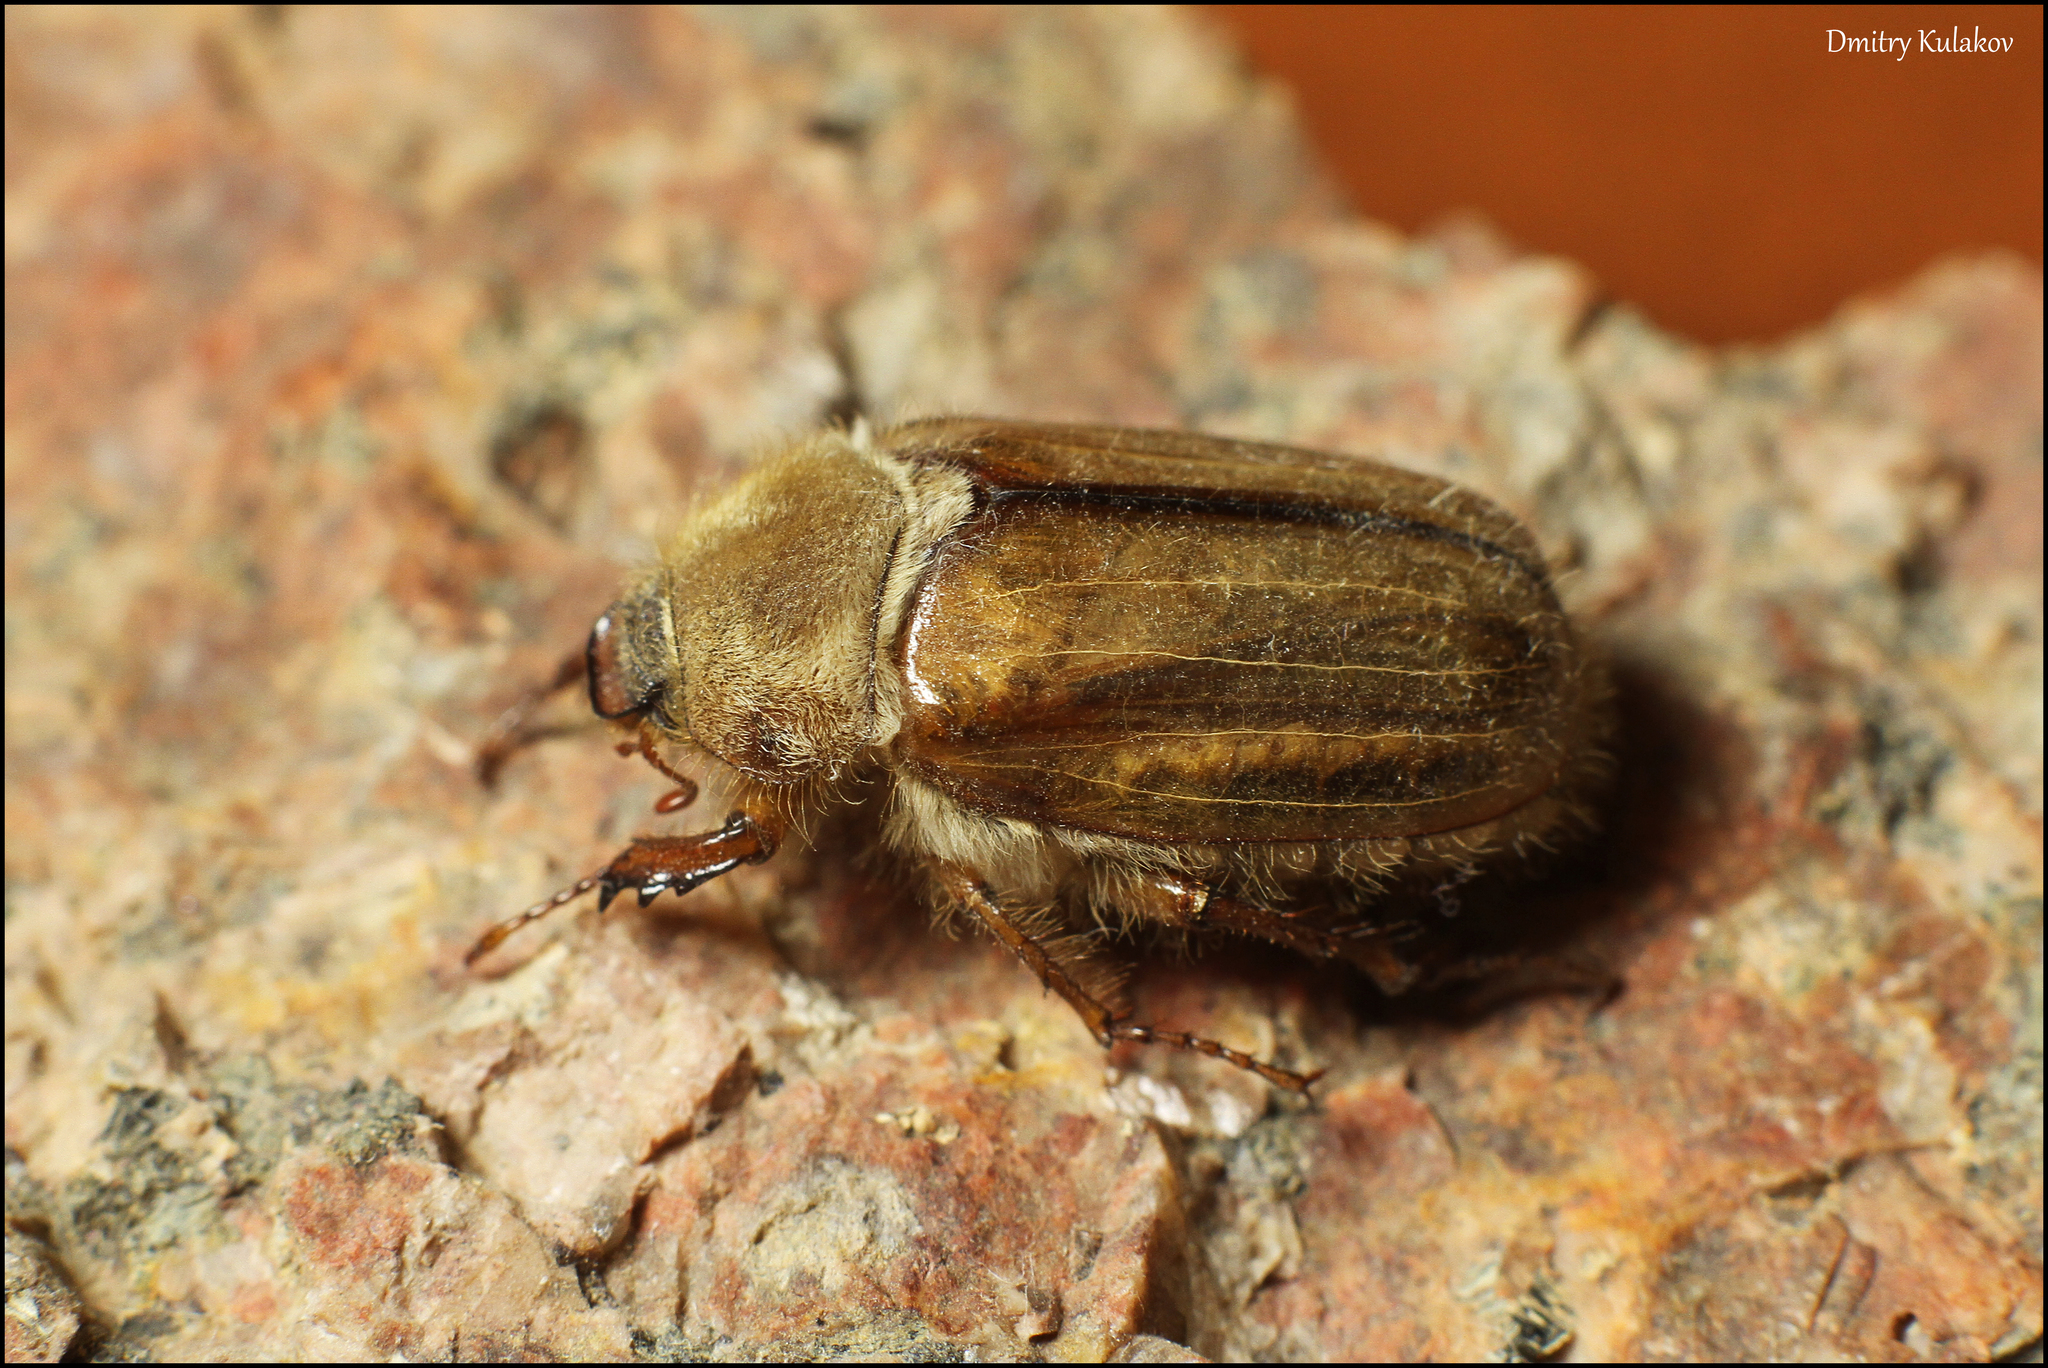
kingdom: Animalia
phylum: Arthropoda
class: Insecta
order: Coleoptera
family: Scarabaeidae
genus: Amphimallon
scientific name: Amphimallon solstitiale
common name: Summer chafer
